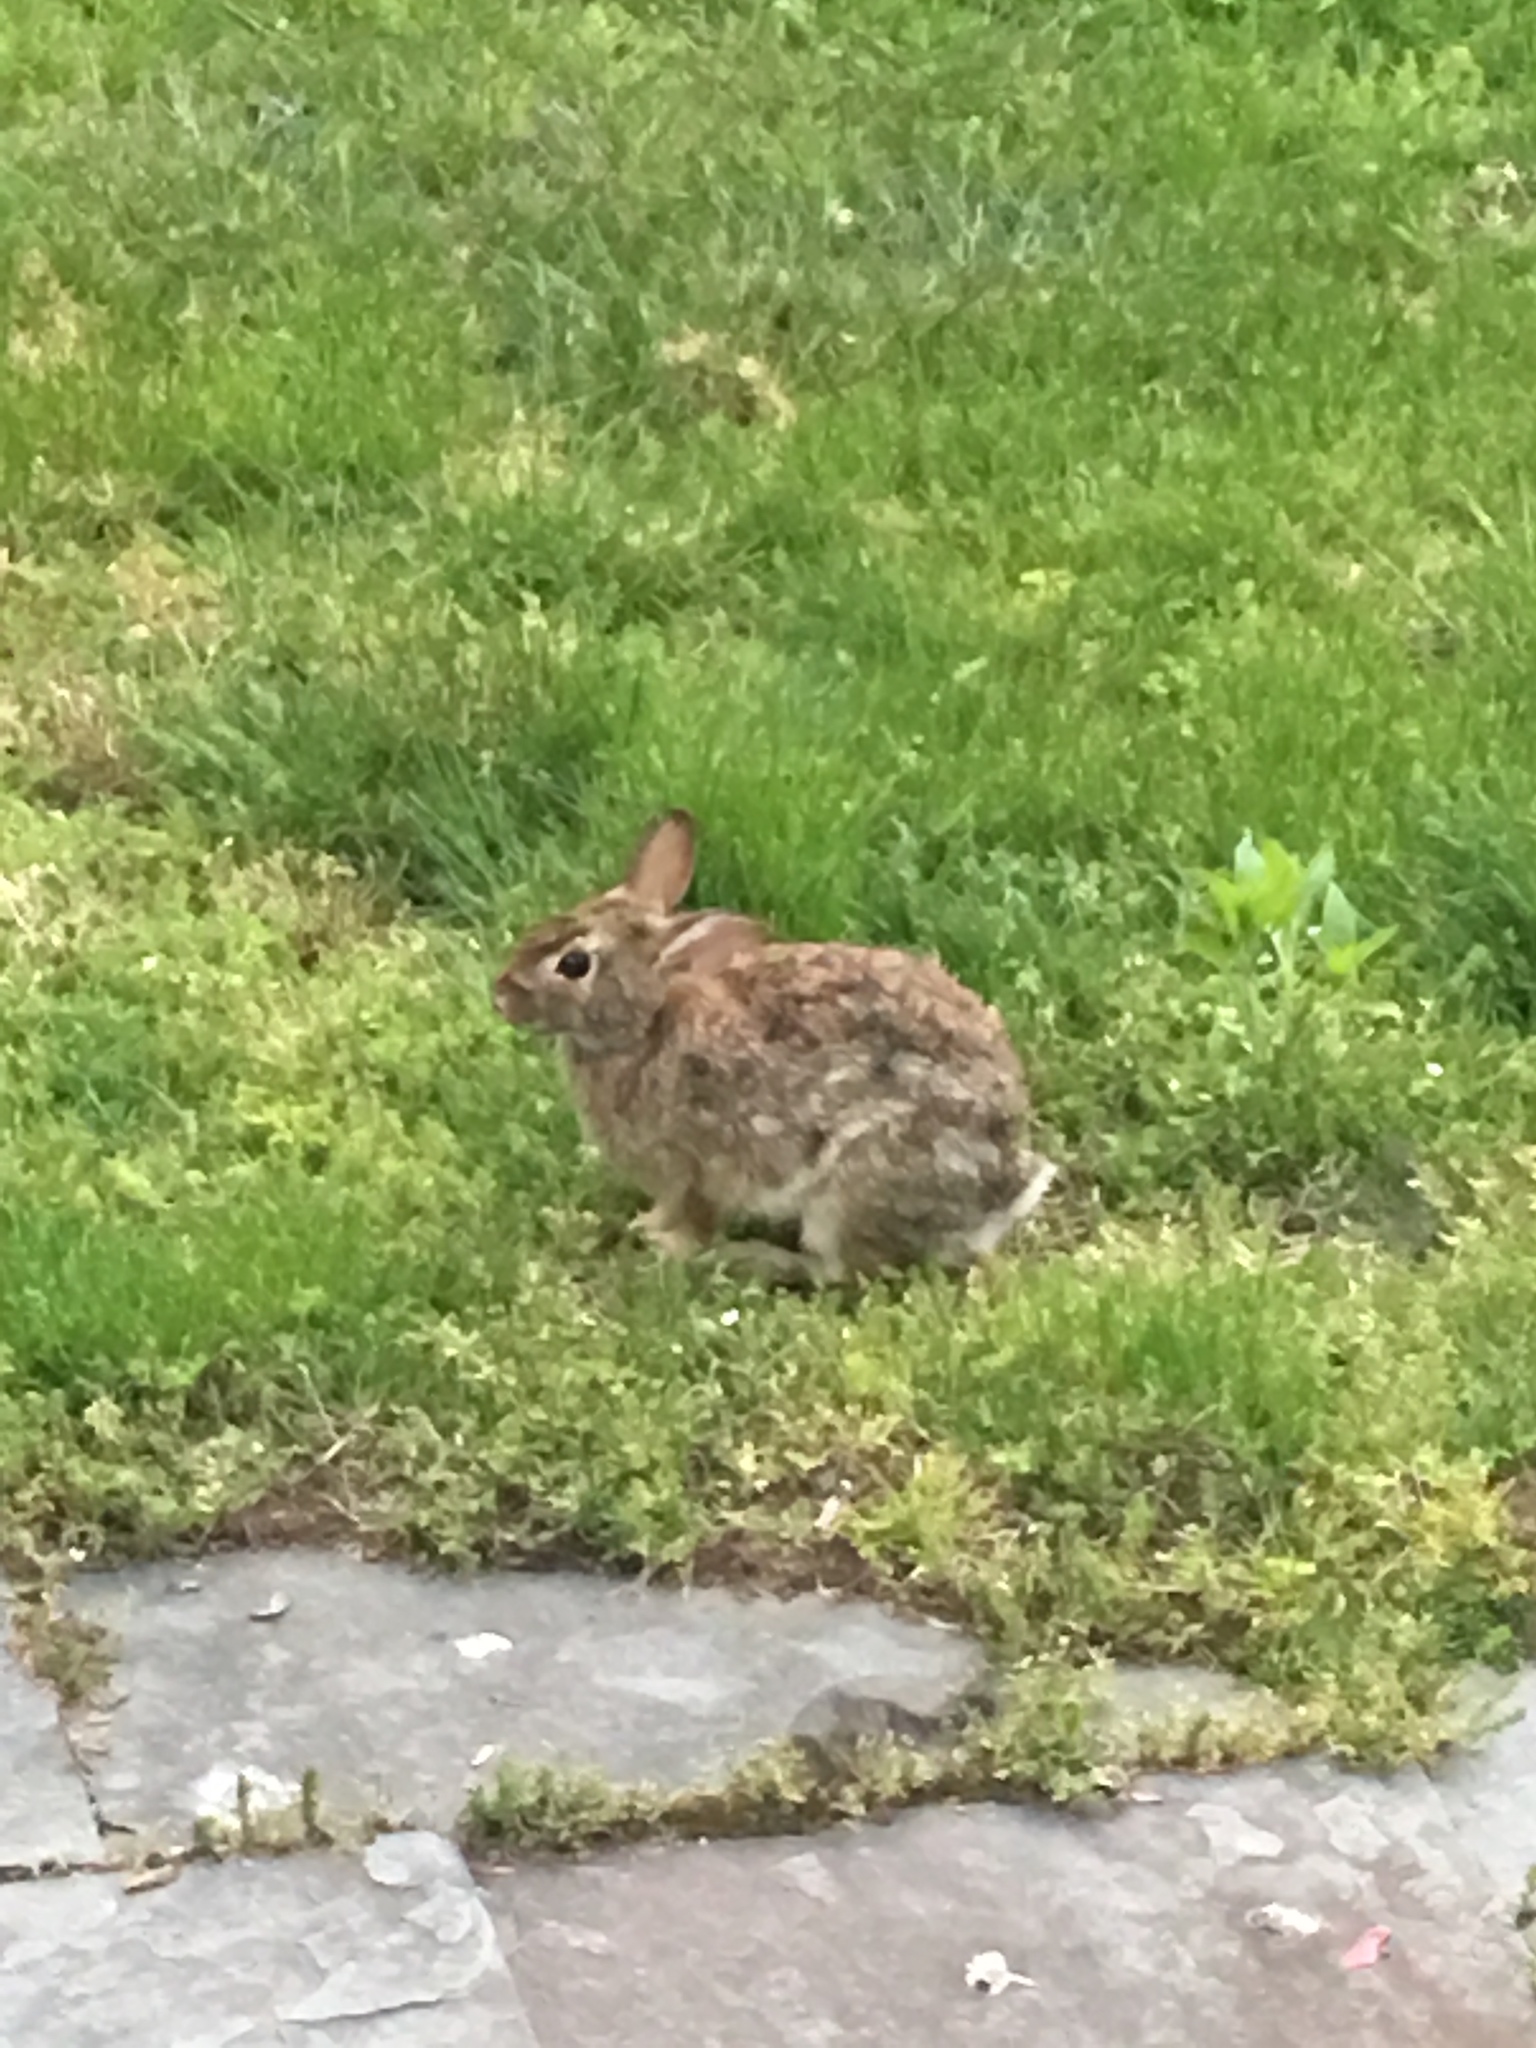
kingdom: Animalia
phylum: Chordata
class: Mammalia
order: Lagomorpha
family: Leporidae
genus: Sylvilagus
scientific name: Sylvilagus floridanus
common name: Eastern cottontail
